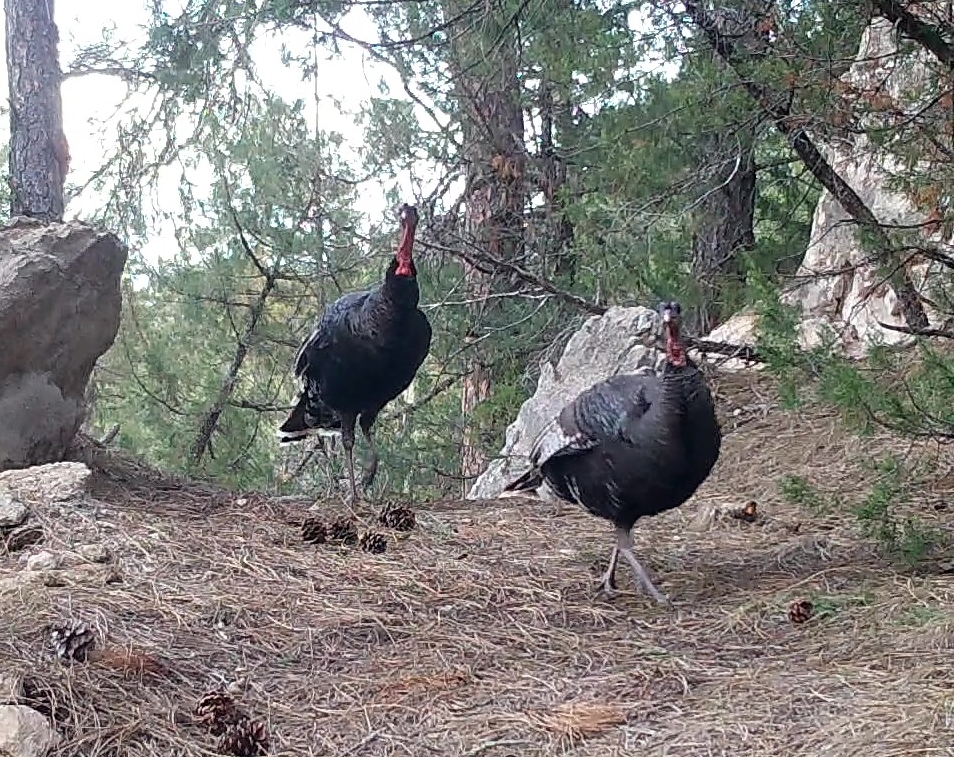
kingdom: Animalia
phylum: Chordata
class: Aves
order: Galliformes
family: Phasianidae
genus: Meleagris
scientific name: Meleagris gallopavo
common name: Wild turkey
